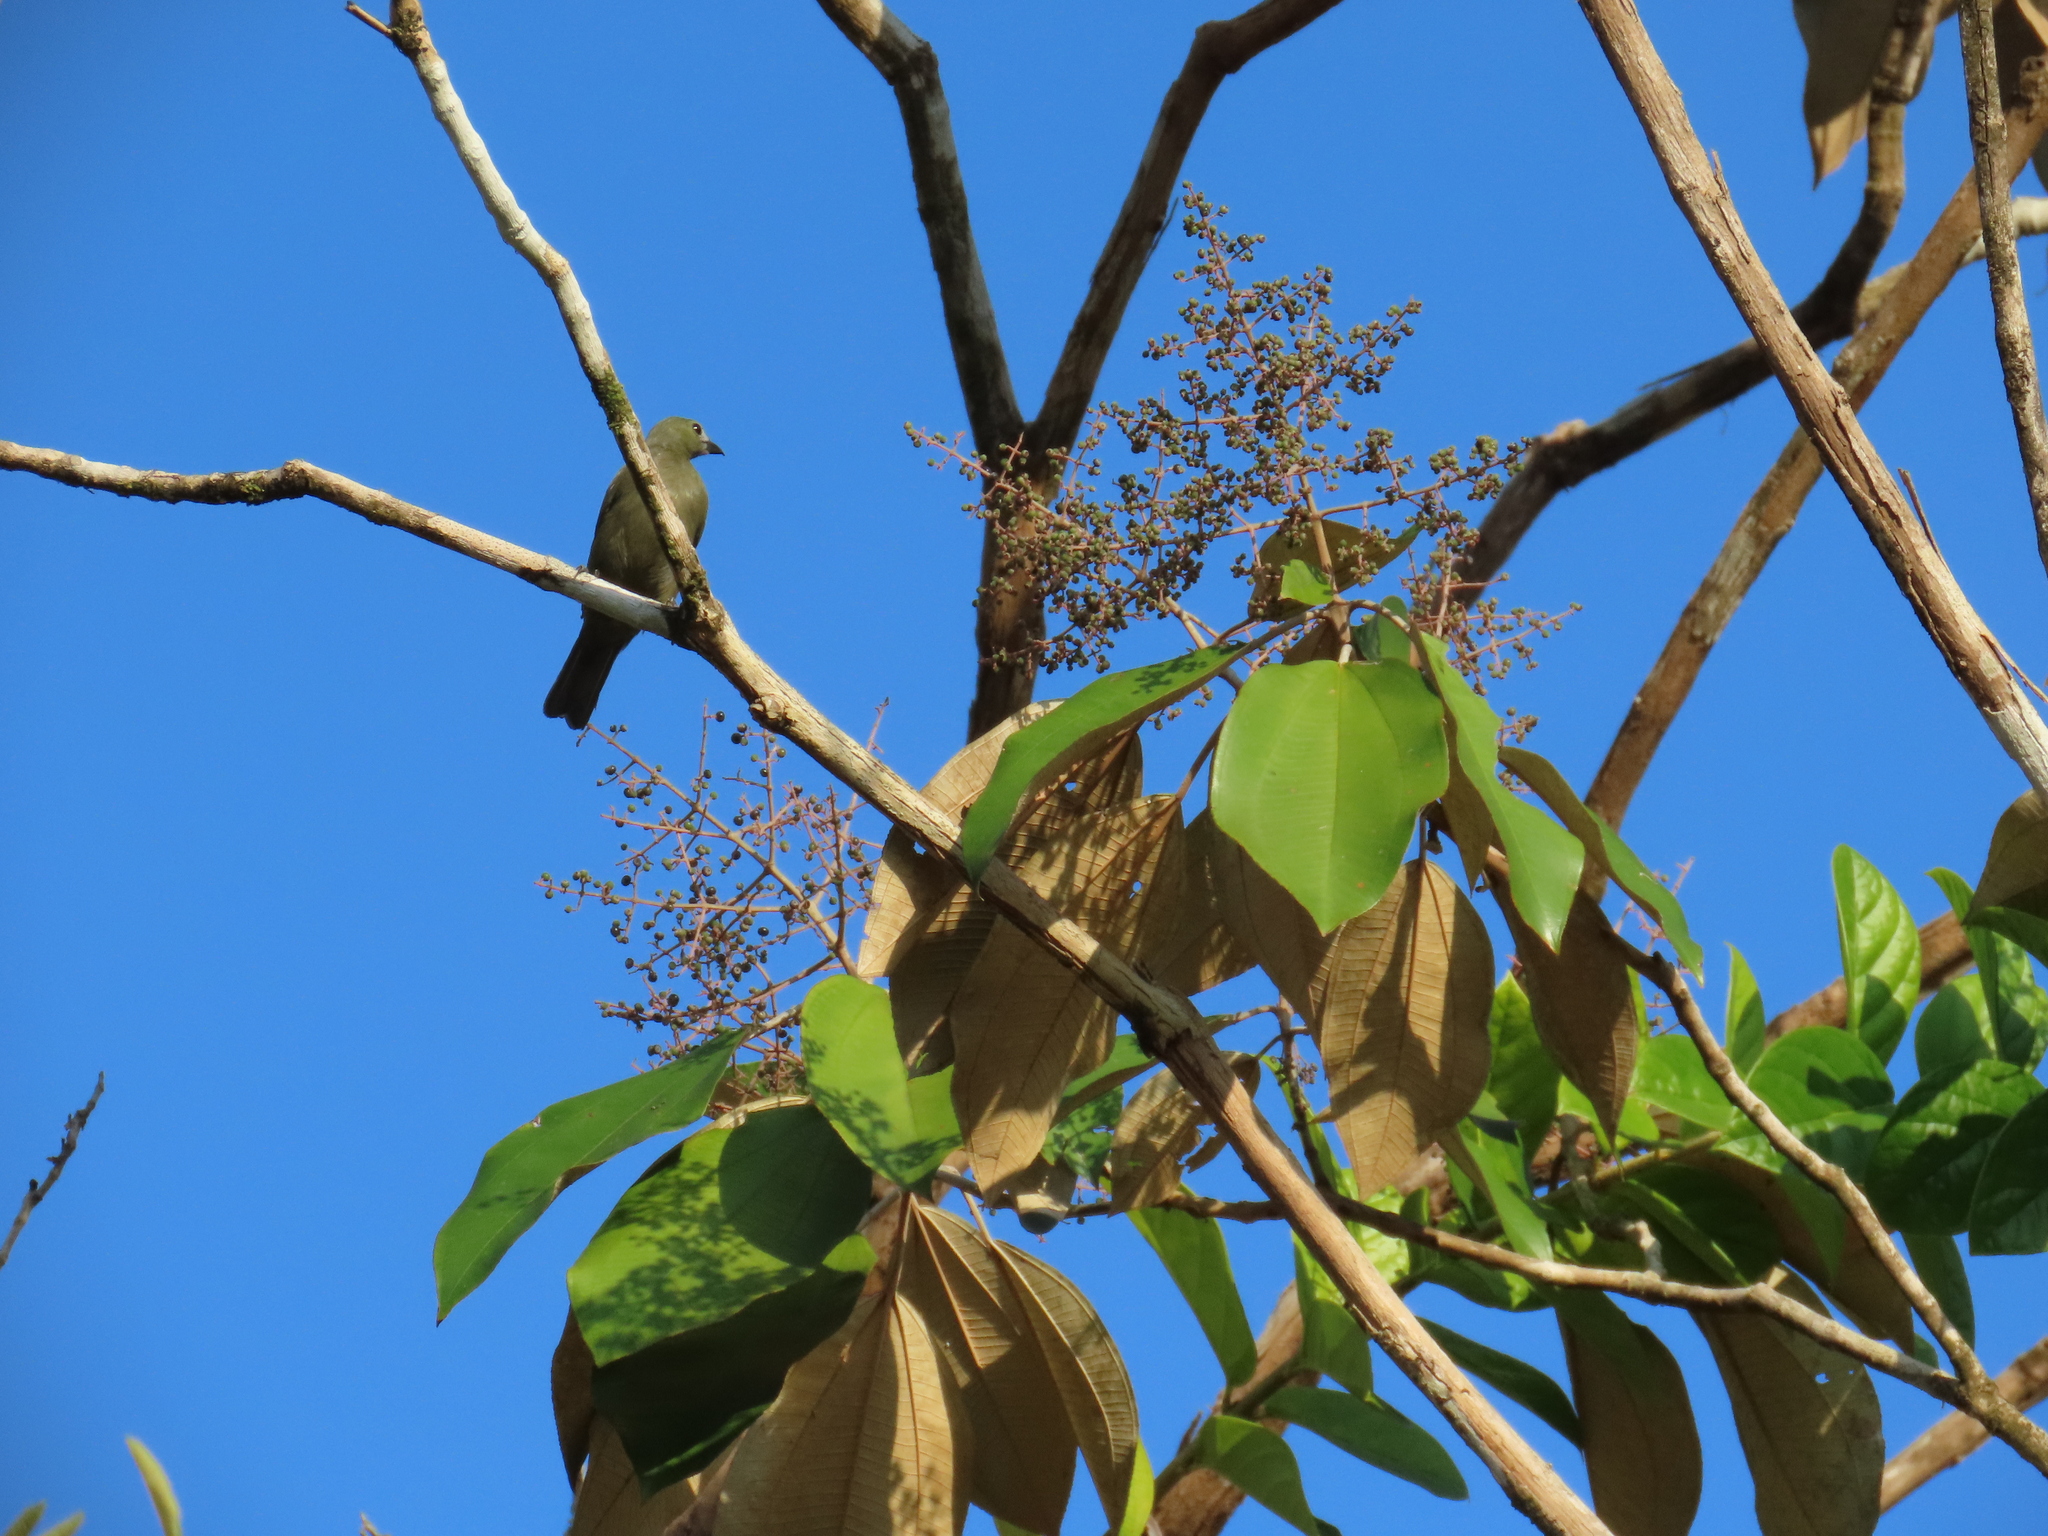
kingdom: Animalia
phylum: Chordata
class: Aves
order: Passeriformes
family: Thraupidae
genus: Thraupis
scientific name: Thraupis palmarum
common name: Palm tanager
